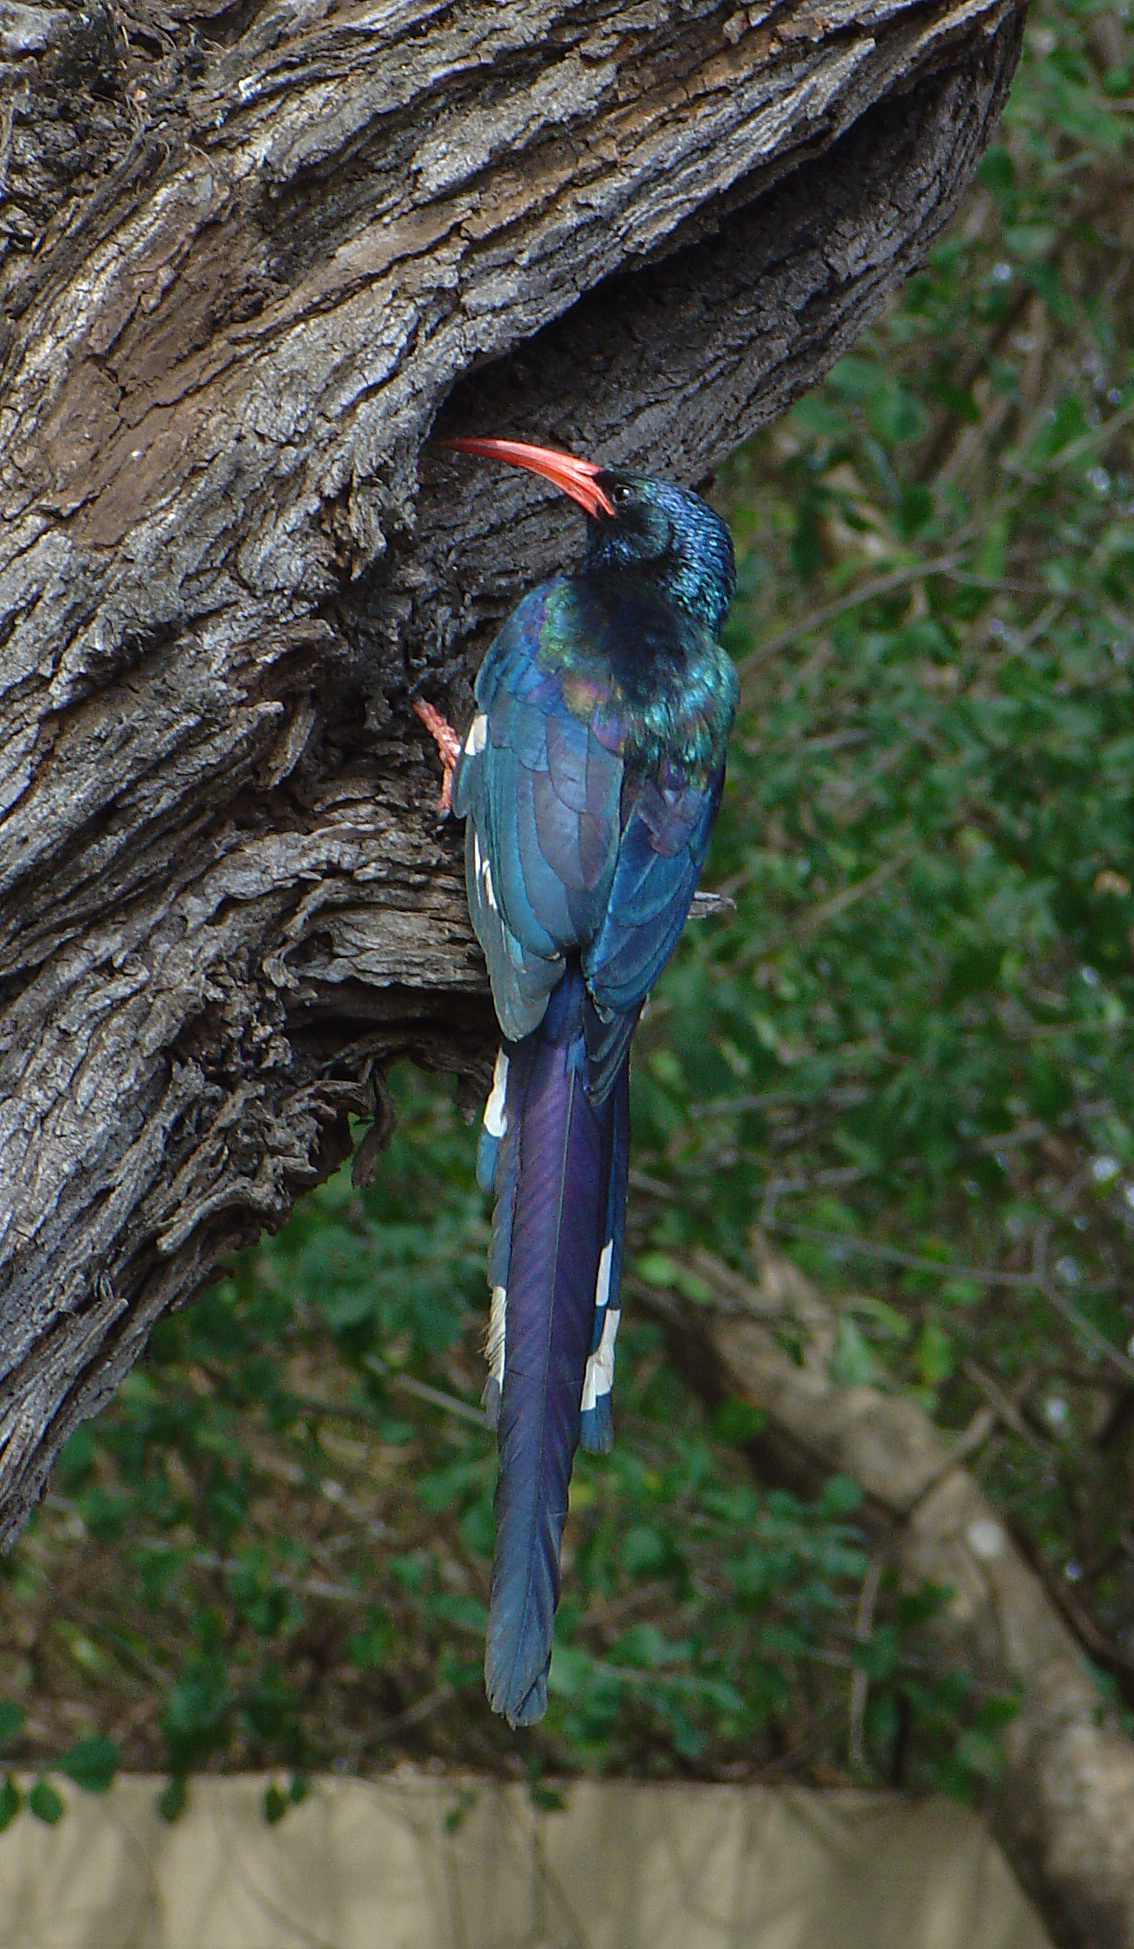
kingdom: Animalia
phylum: Chordata
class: Aves
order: Bucerotiformes
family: Phoeniculidae
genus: Phoeniculus
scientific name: Phoeniculus purpureus
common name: Green woodhoopoe
